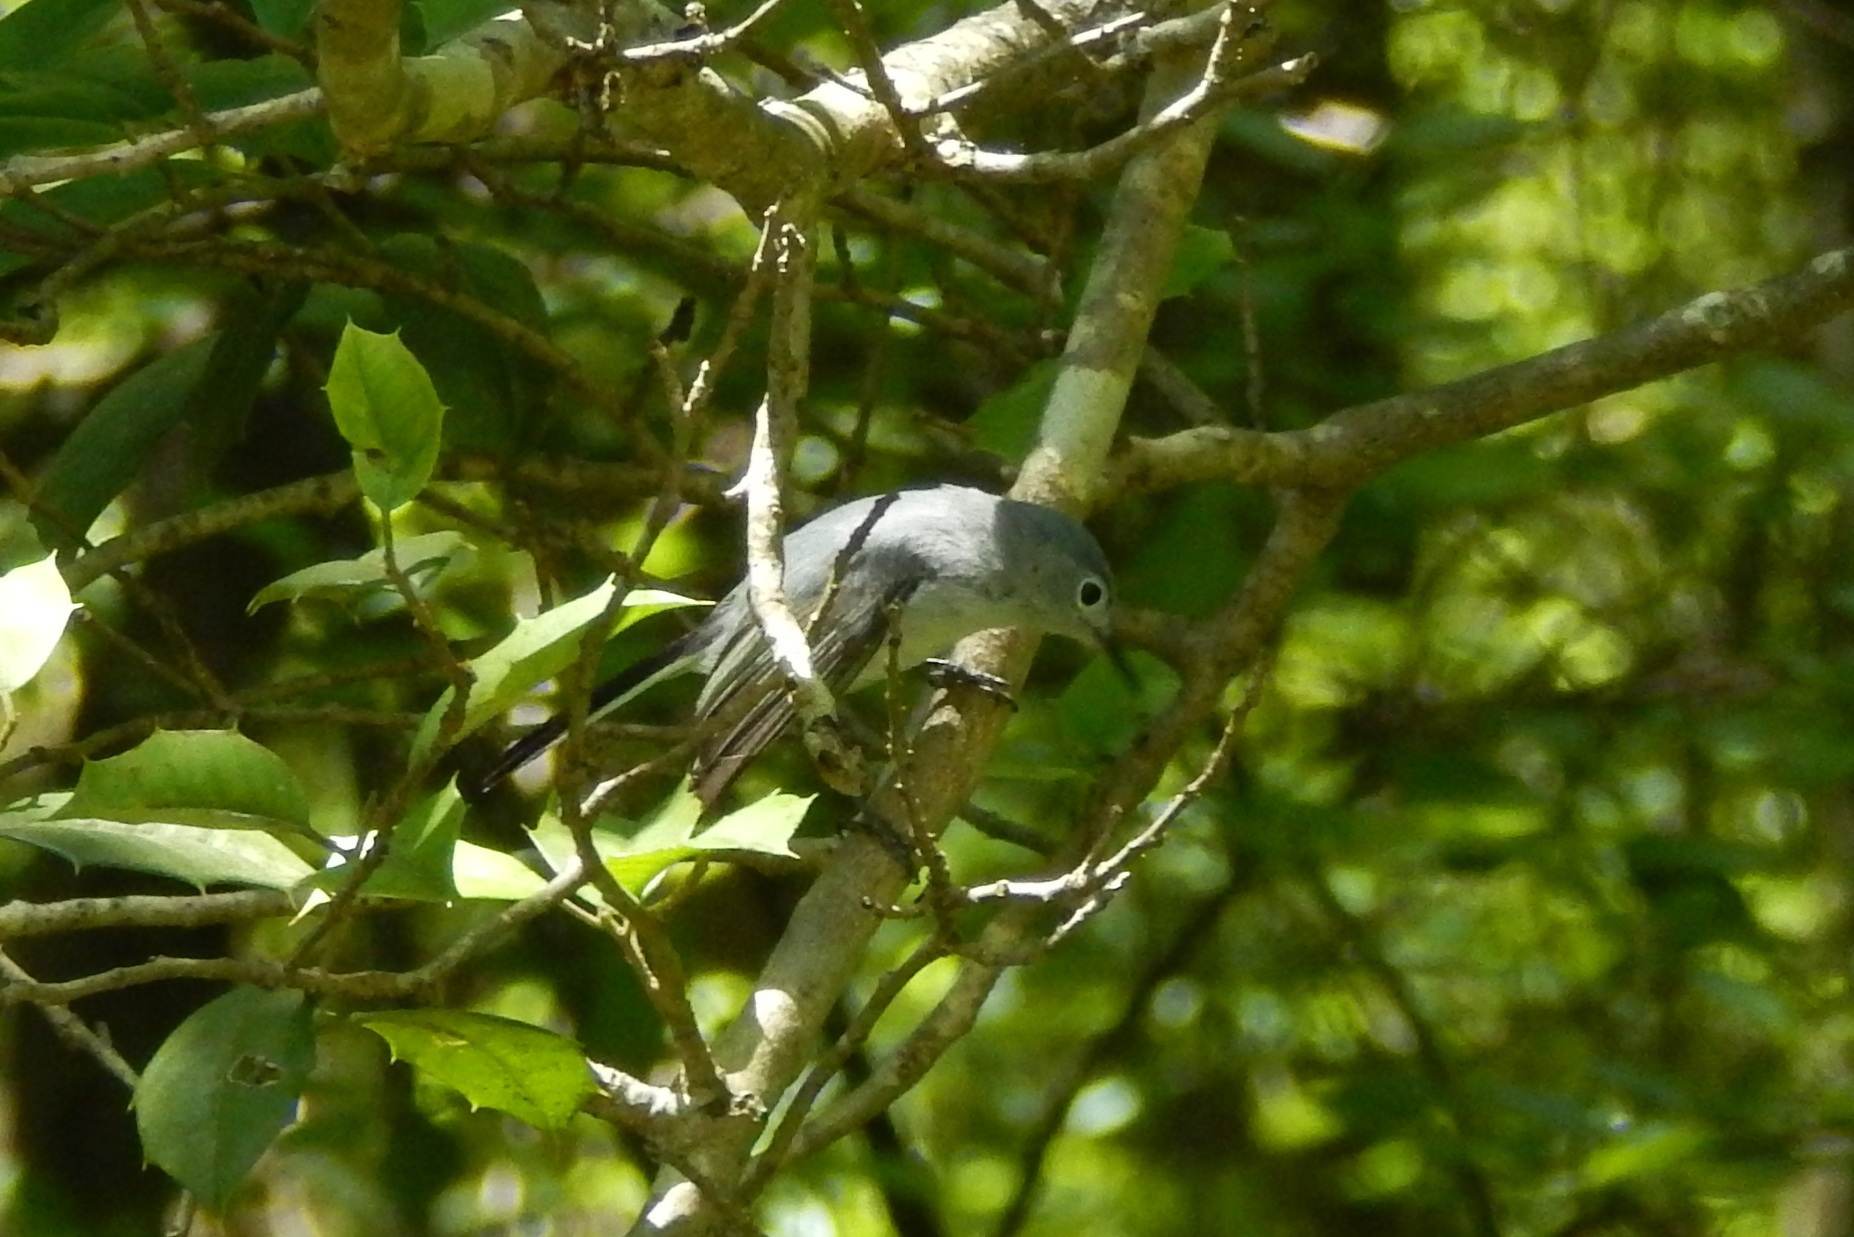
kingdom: Animalia
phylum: Chordata
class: Aves
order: Passeriformes
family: Polioptilidae
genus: Polioptila
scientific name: Polioptila caerulea
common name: Blue-gray gnatcatcher
